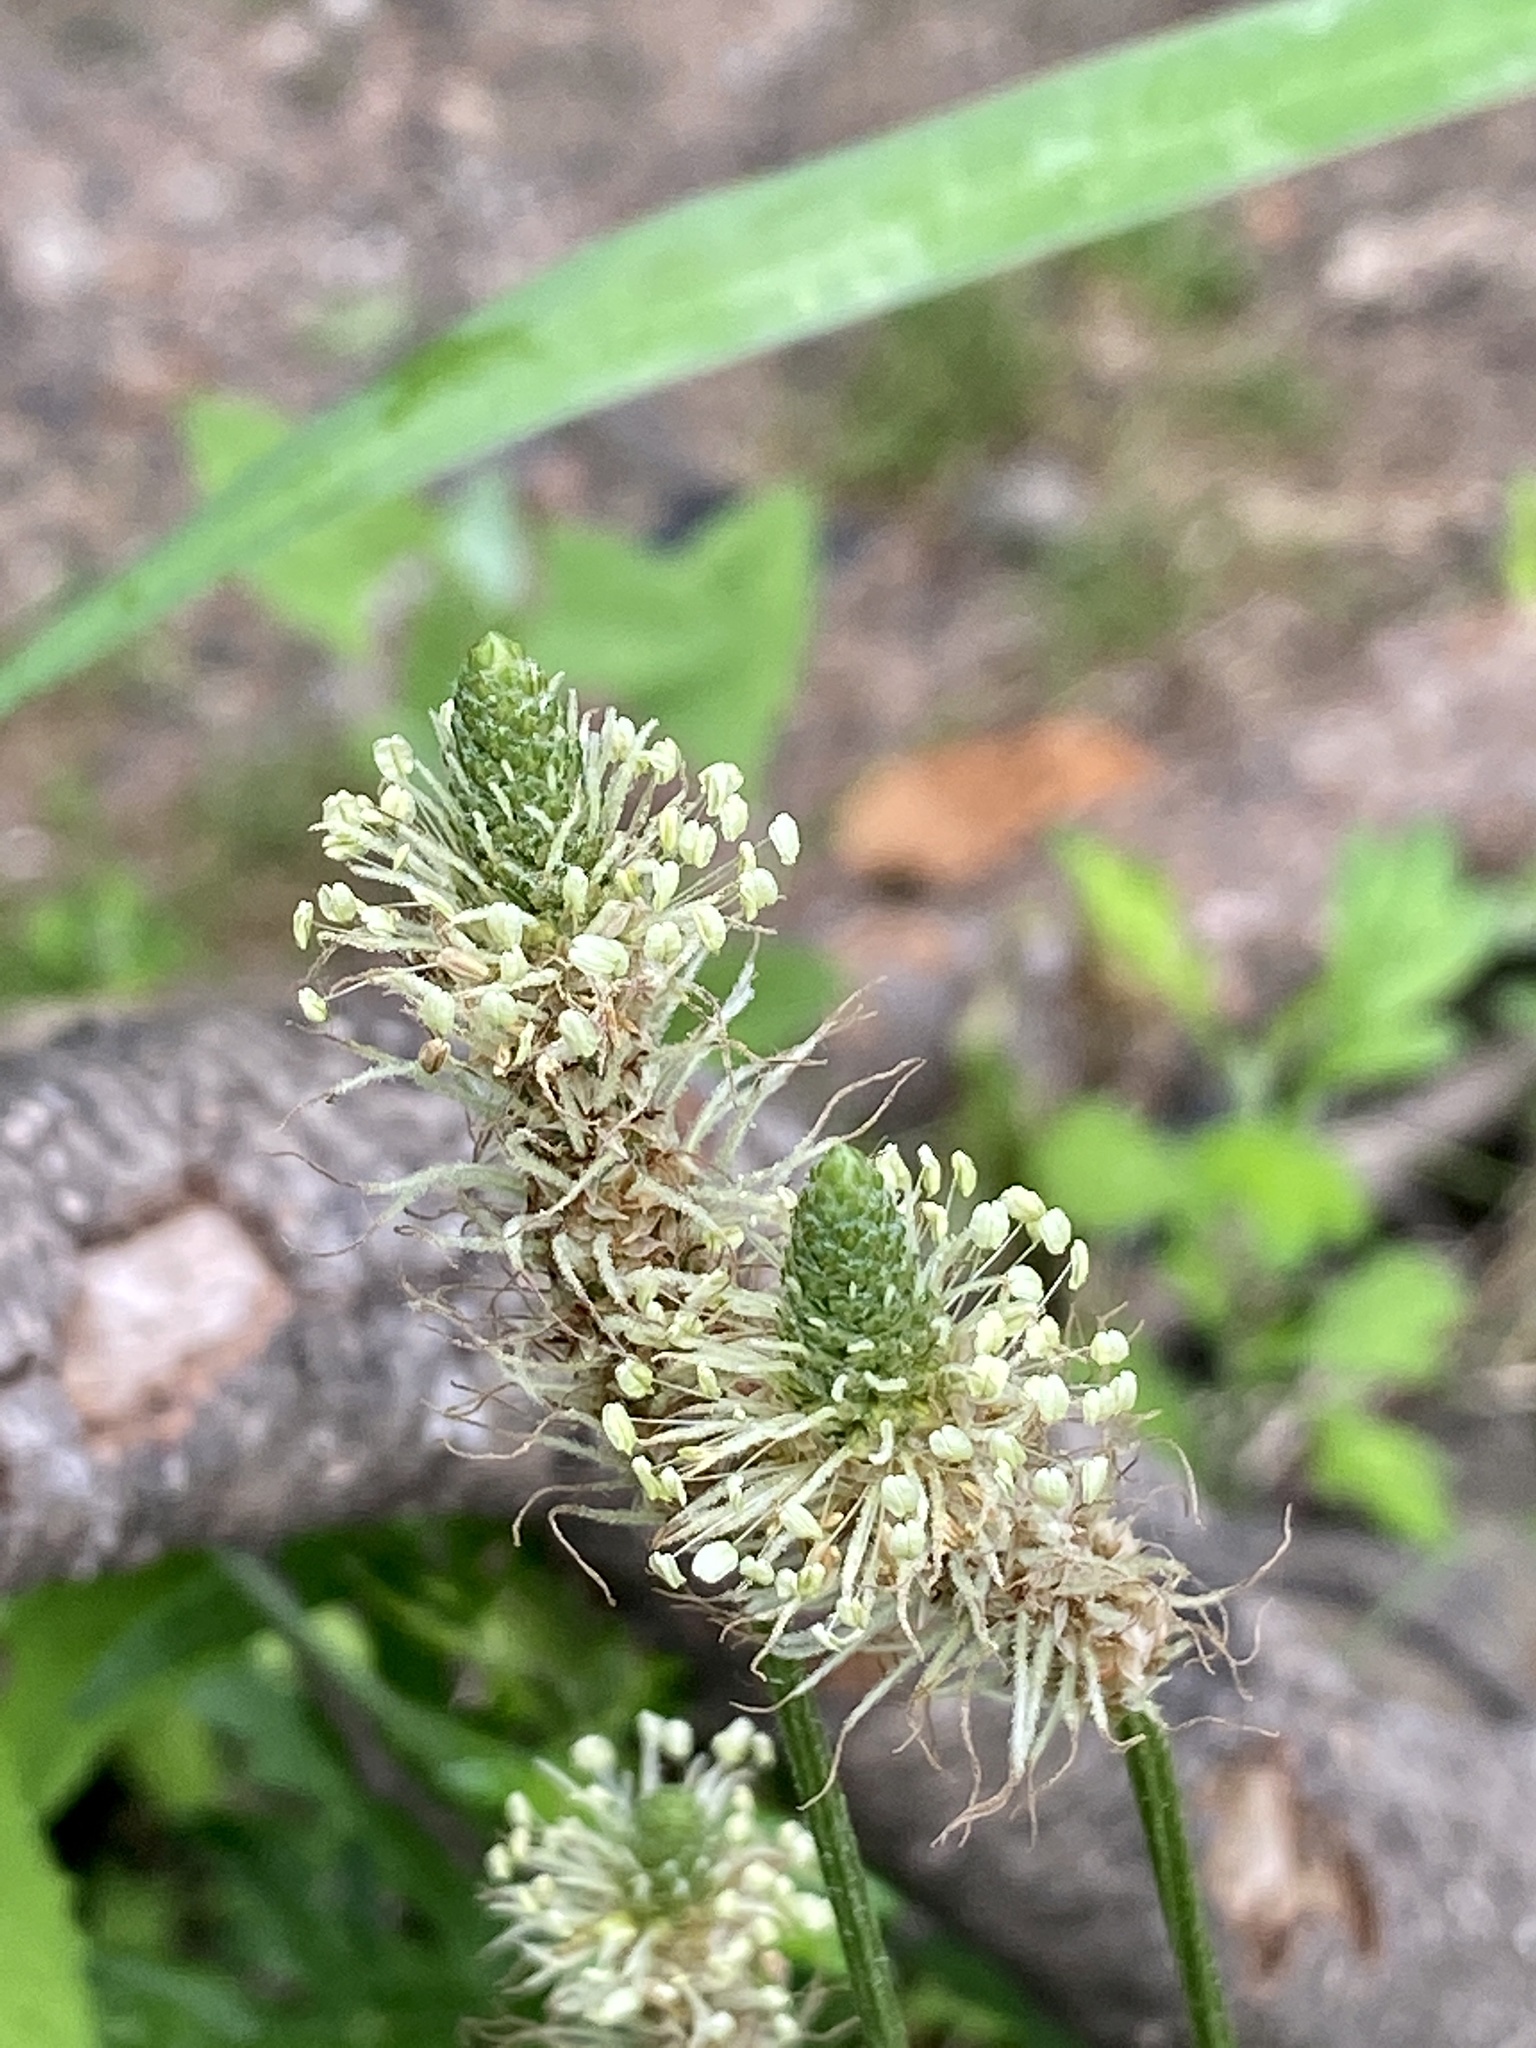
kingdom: Plantae
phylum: Tracheophyta
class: Magnoliopsida
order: Lamiales
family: Plantaginaceae
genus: Plantago
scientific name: Plantago lanceolata
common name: Ribwort plantain
